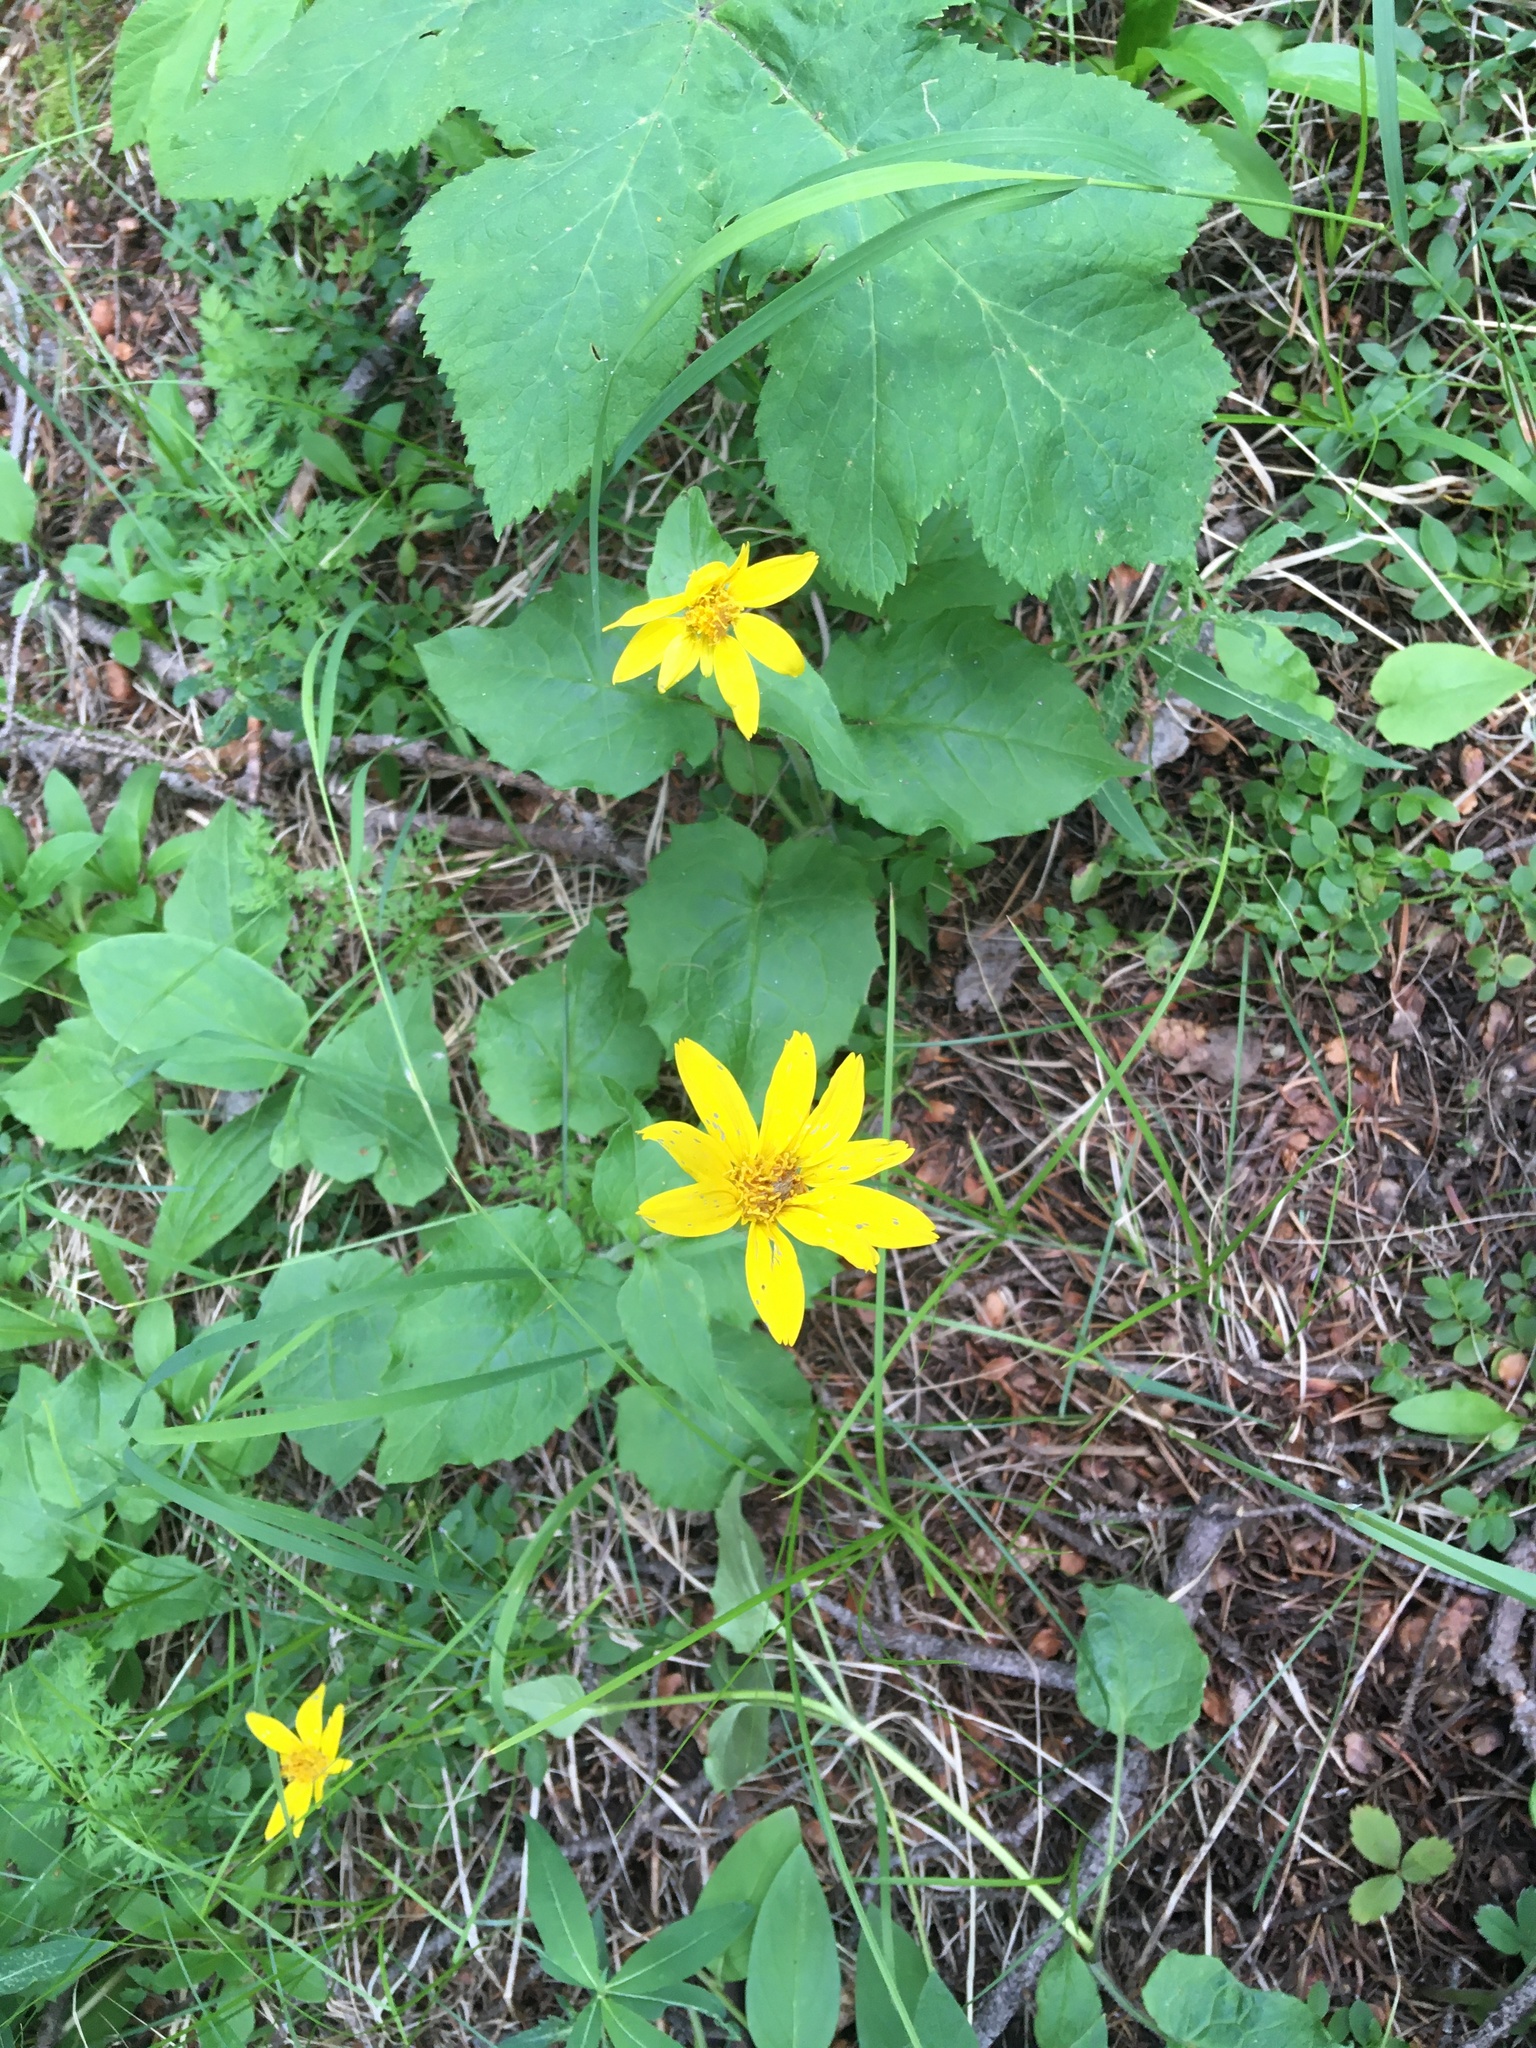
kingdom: Plantae
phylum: Tracheophyta
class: Magnoliopsida
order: Asterales
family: Asteraceae
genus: Arnica
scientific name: Arnica cordifolia
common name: Heart-leaf arnica
